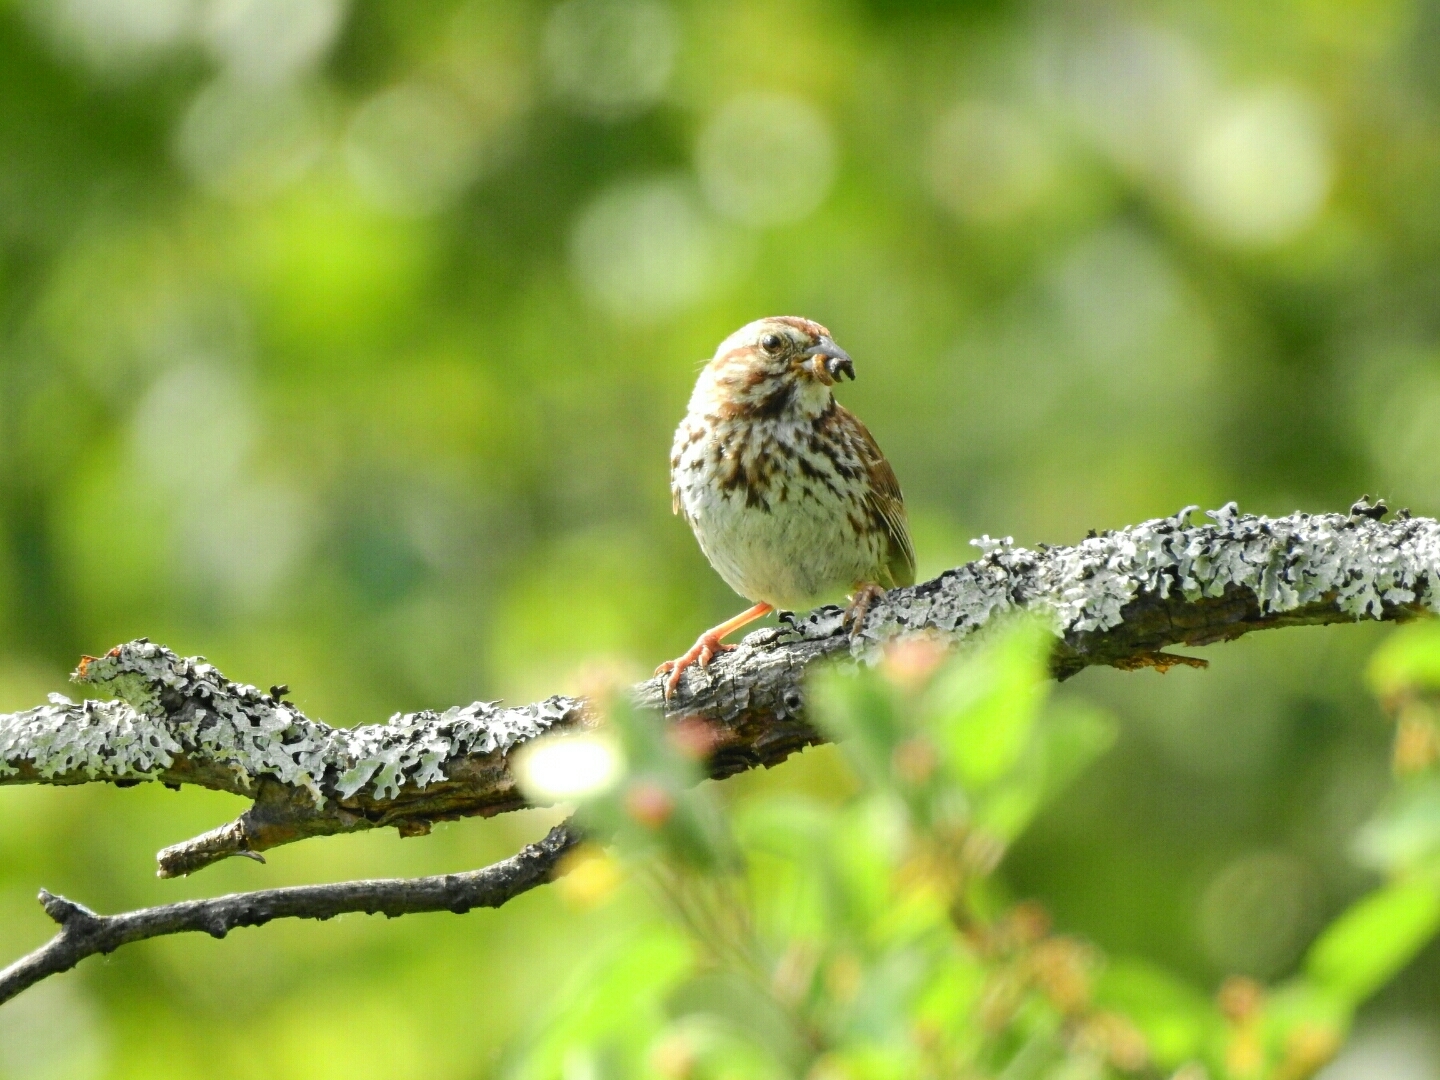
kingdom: Animalia
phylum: Chordata
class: Aves
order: Passeriformes
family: Passerellidae
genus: Melospiza
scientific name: Melospiza melodia
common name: Song sparrow
